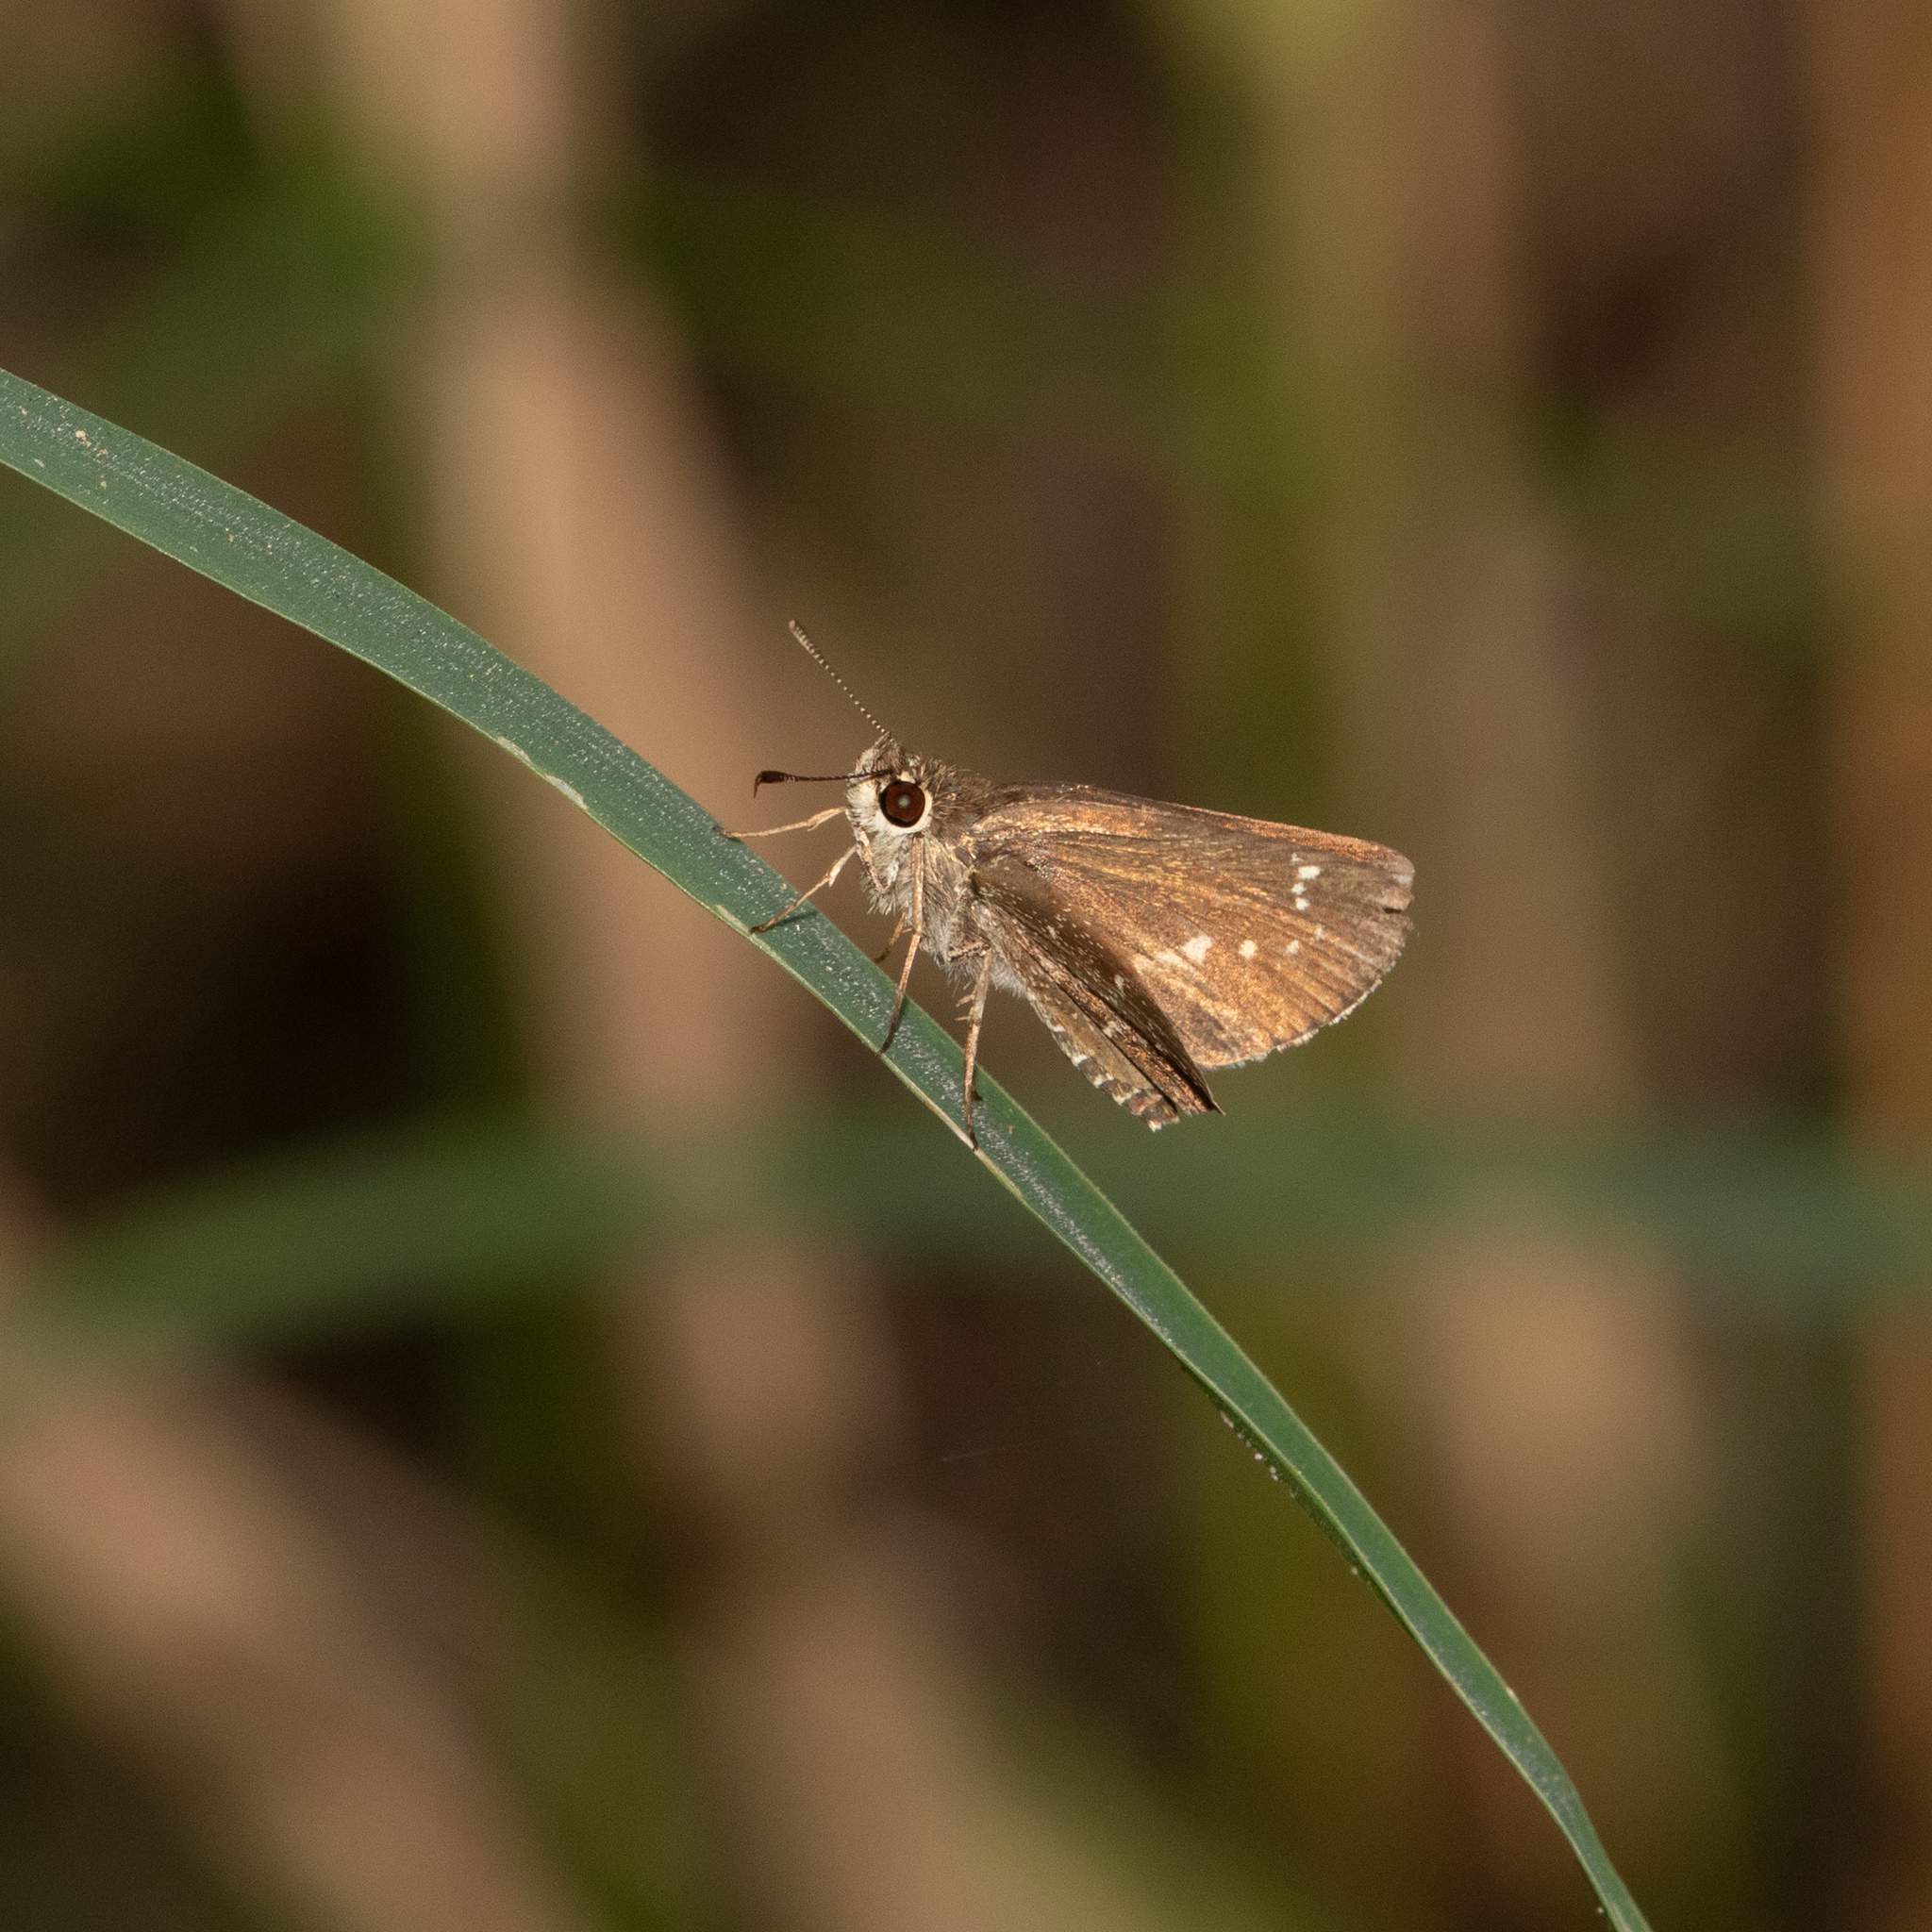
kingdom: Animalia
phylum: Arthropoda
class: Insecta
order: Lepidoptera
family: Hesperiidae
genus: Mastor
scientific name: Mastor celia
